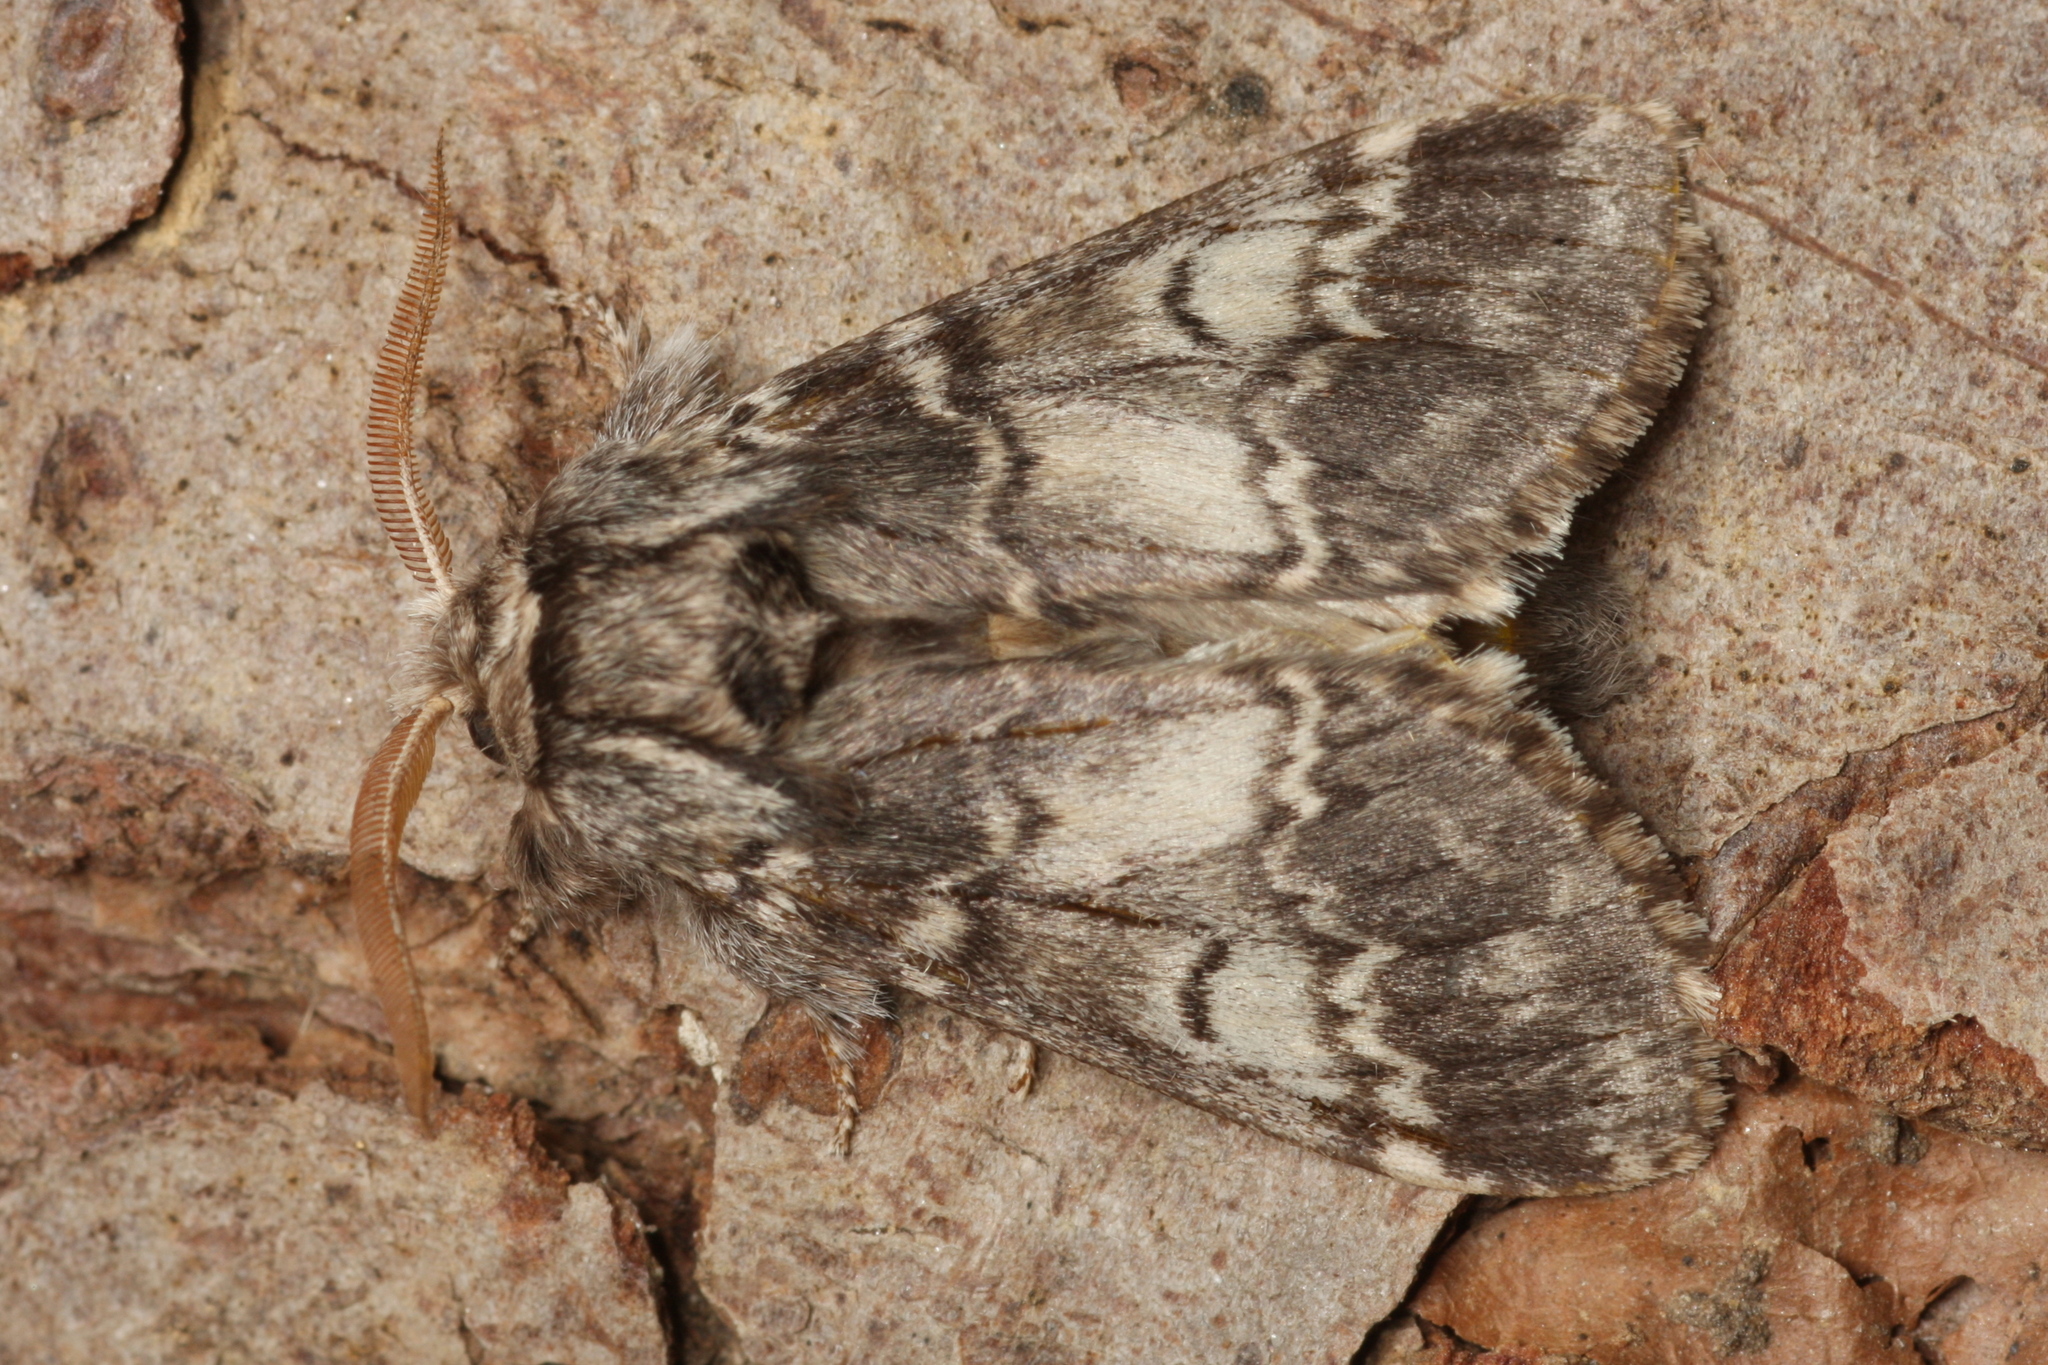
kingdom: Animalia
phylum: Arthropoda
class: Insecta
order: Lepidoptera
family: Notodontidae
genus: Drymonia
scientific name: Drymonia ruficornis
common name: Lunar marbled brown
